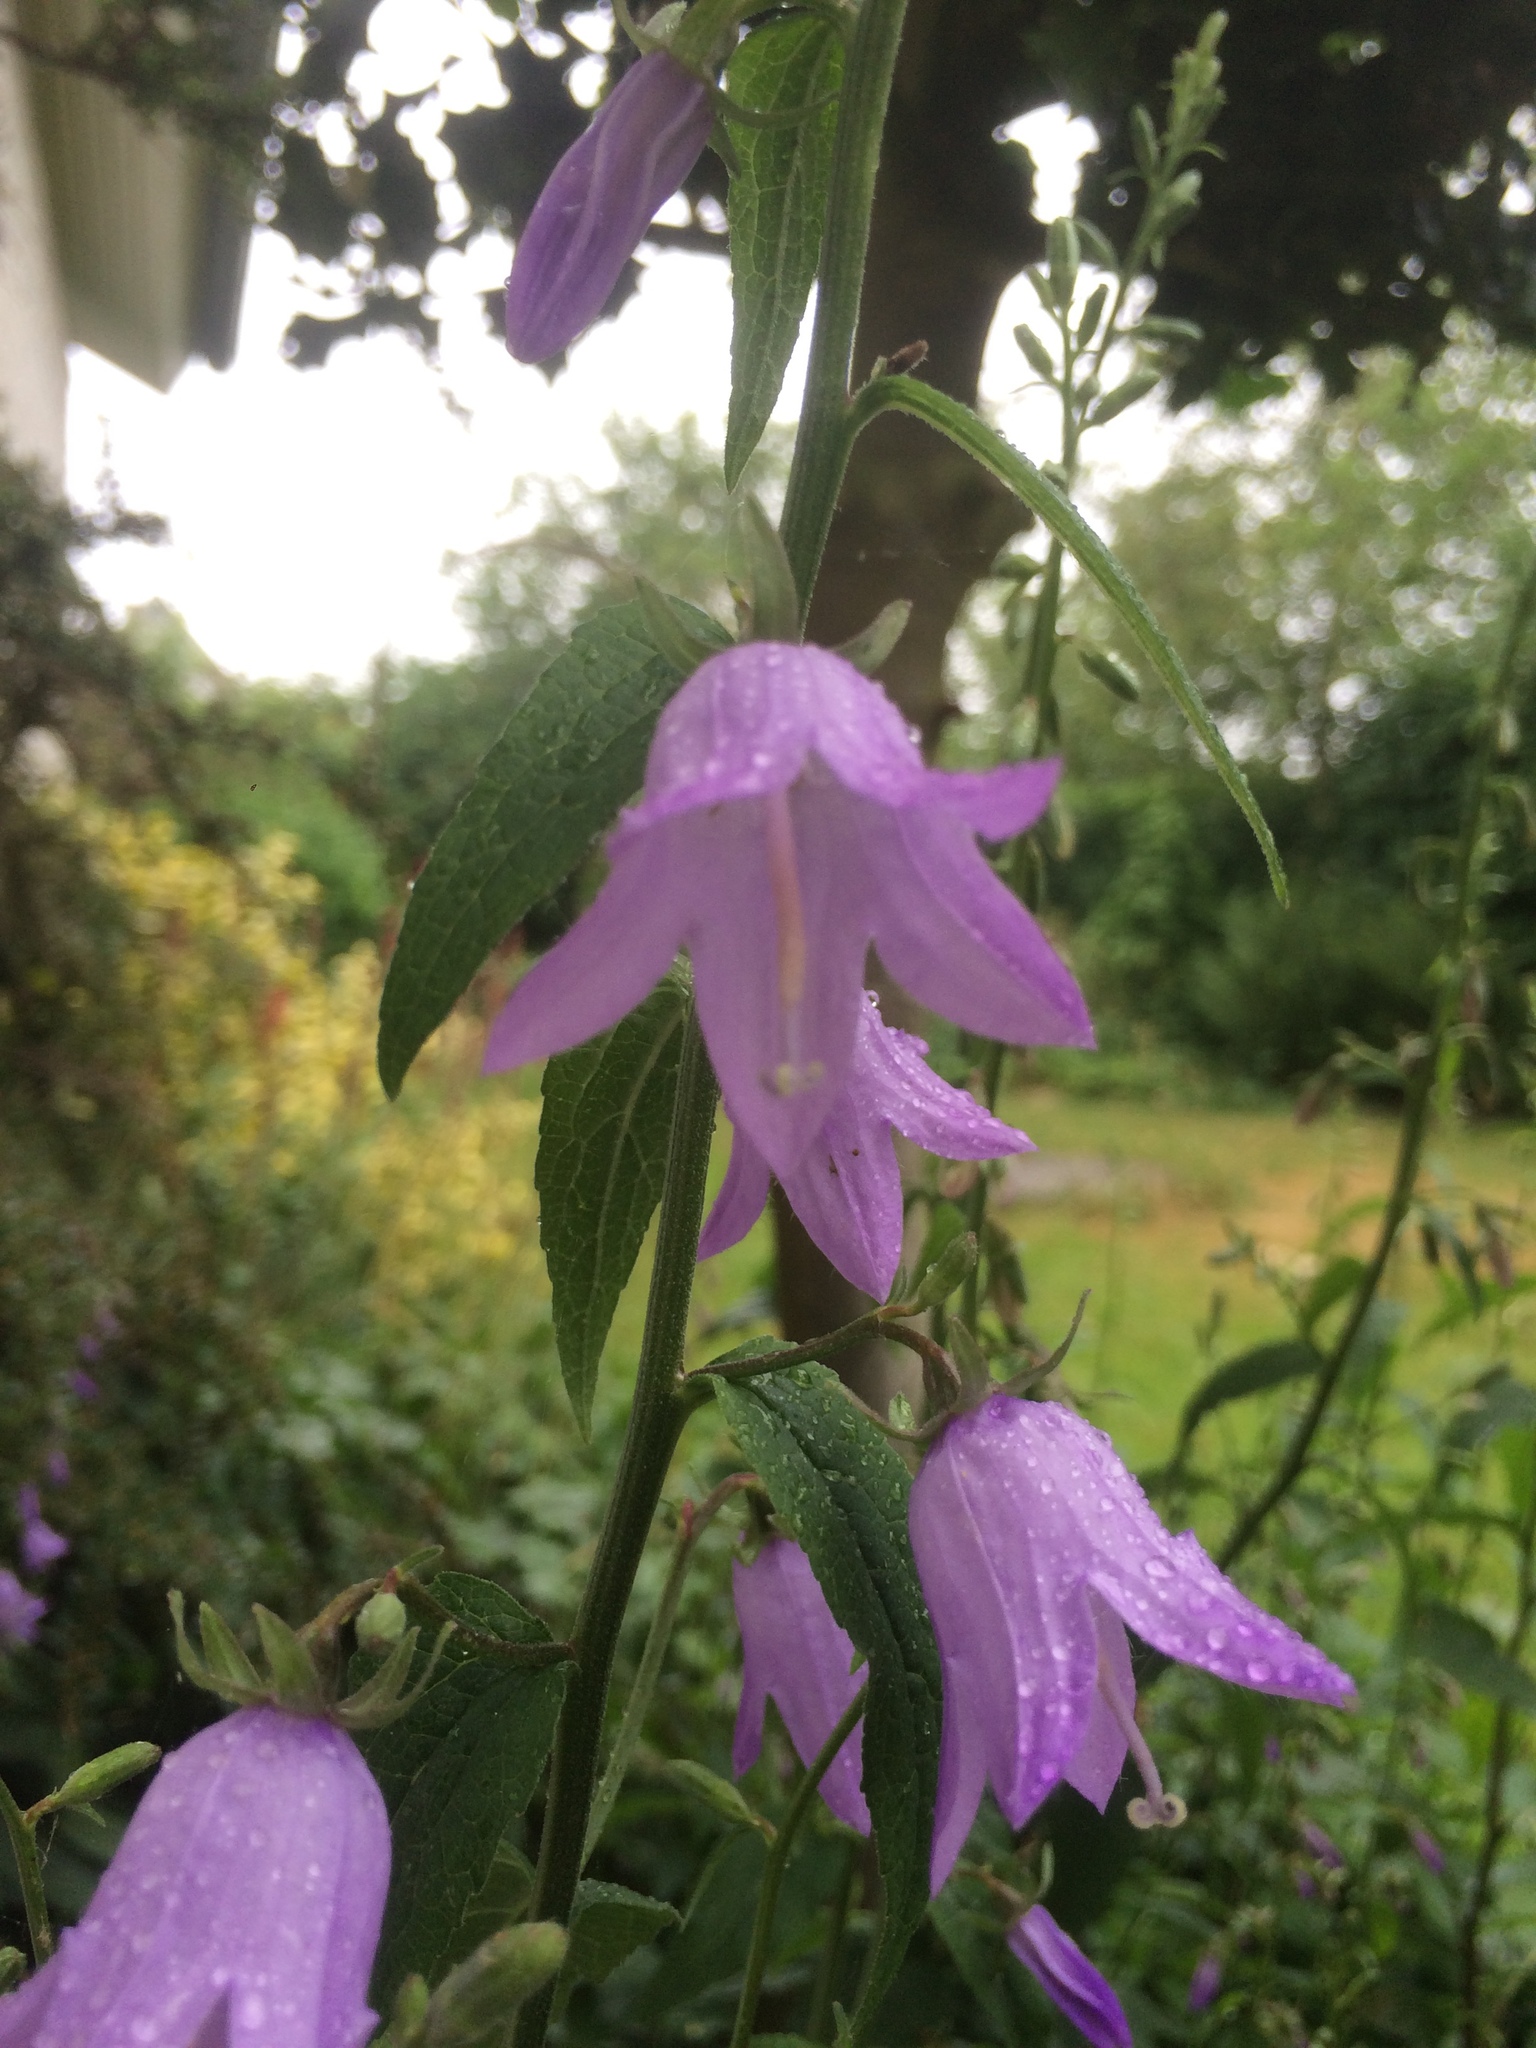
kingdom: Plantae
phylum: Tracheophyta
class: Magnoliopsida
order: Asterales
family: Campanulaceae
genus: Campanula
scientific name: Campanula rapunculoides
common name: Creeping bellflower
